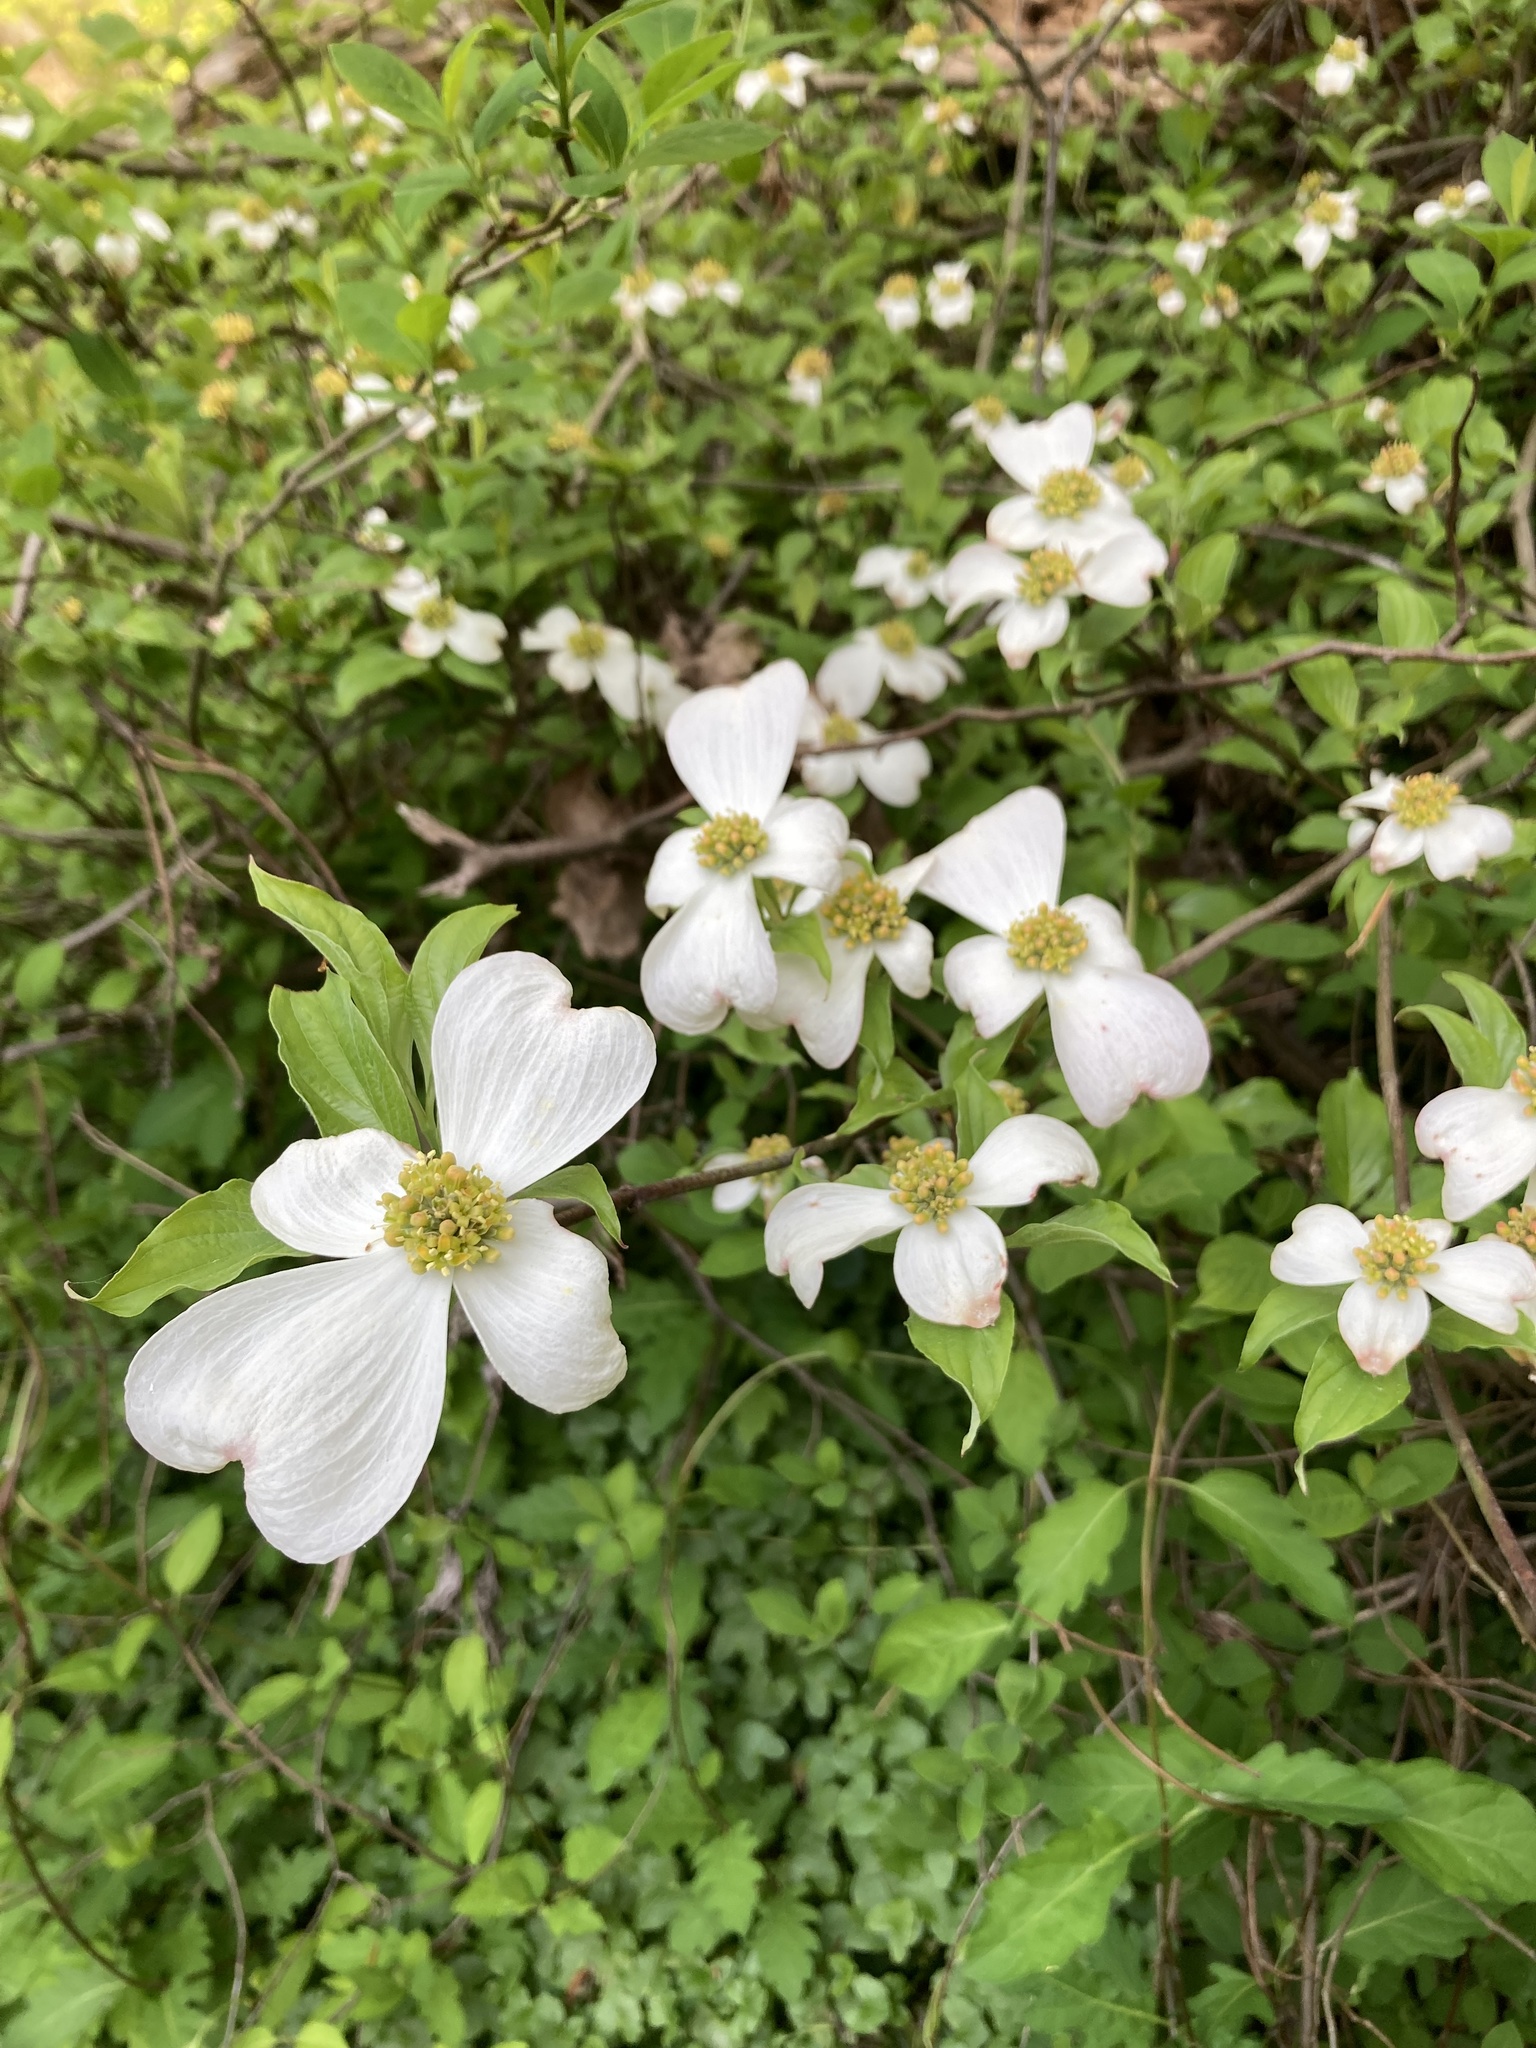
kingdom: Plantae
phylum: Tracheophyta
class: Magnoliopsida
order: Cornales
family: Cornaceae
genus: Cornus
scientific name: Cornus florida
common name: Flowering dogwood
